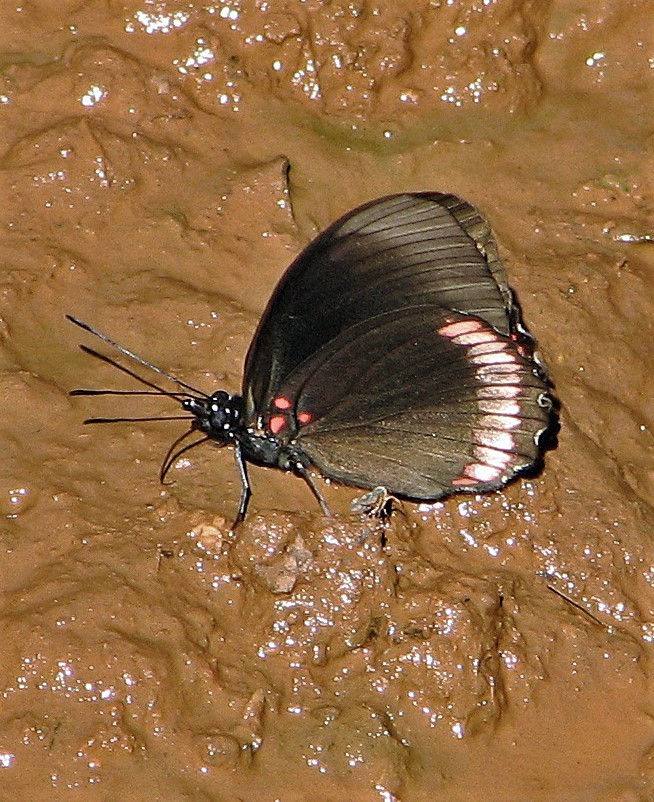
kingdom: Animalia
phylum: Arthropoda
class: Insecta
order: Lepidoptera
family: Sesiidae
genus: Sesia
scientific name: Sesia Biblis hyperia
